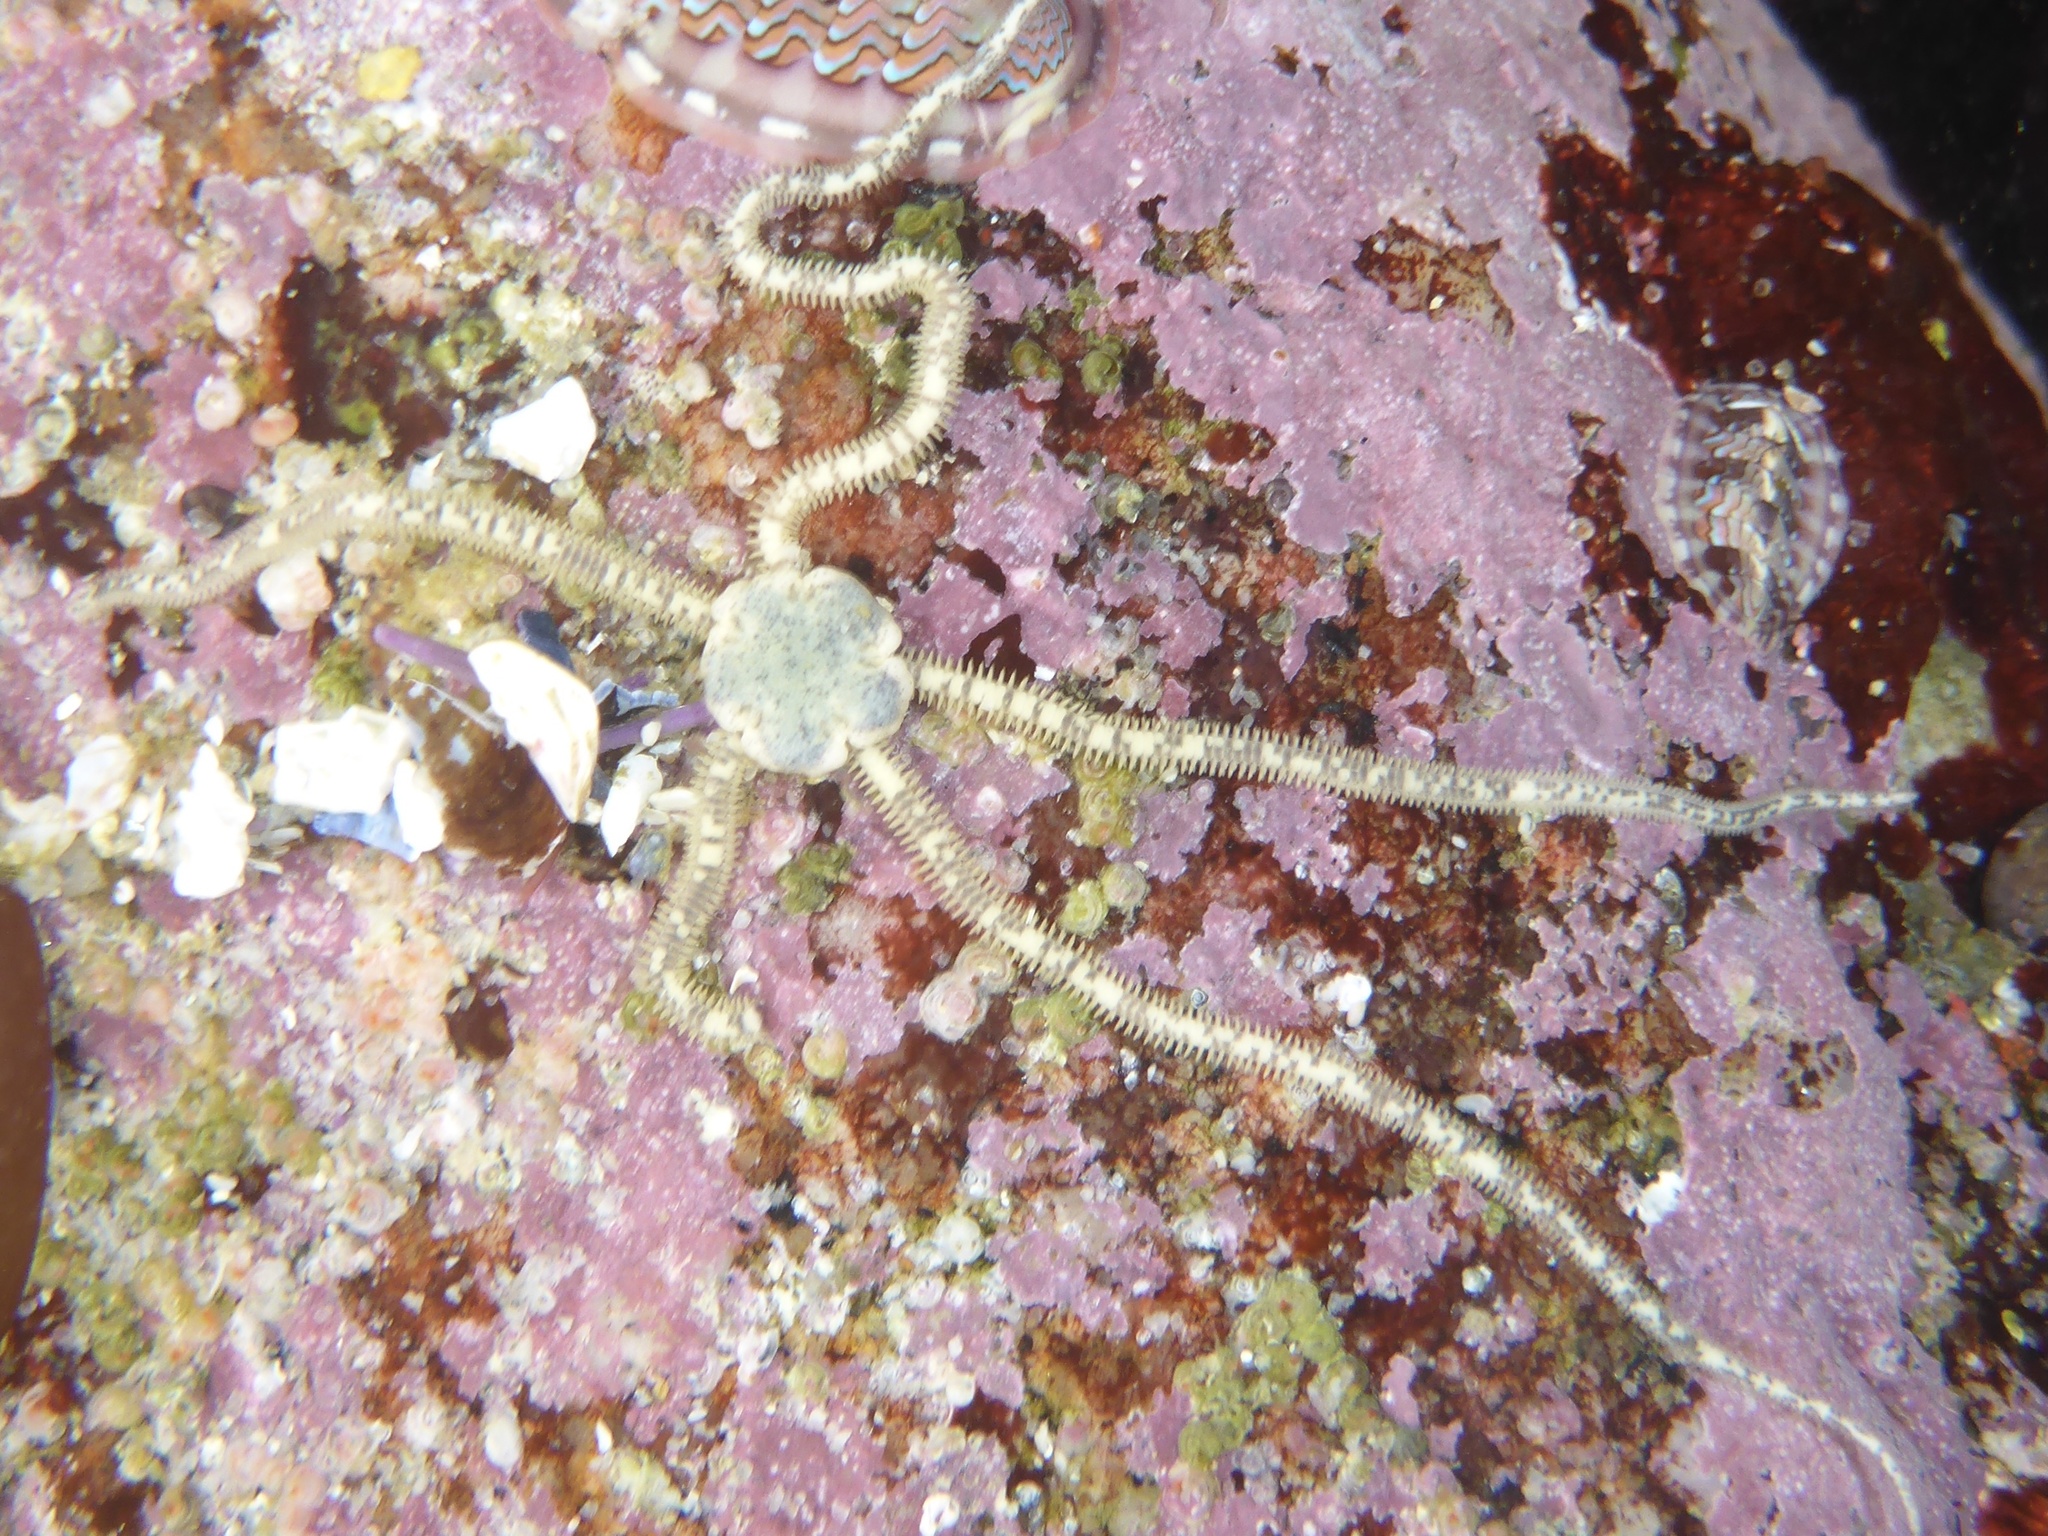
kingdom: Animalia
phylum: Echinodermata
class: Ophiuroidea
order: Amphilepidida
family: Amphiuridae
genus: Amphiodia
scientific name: Amphiodia occidentalis
